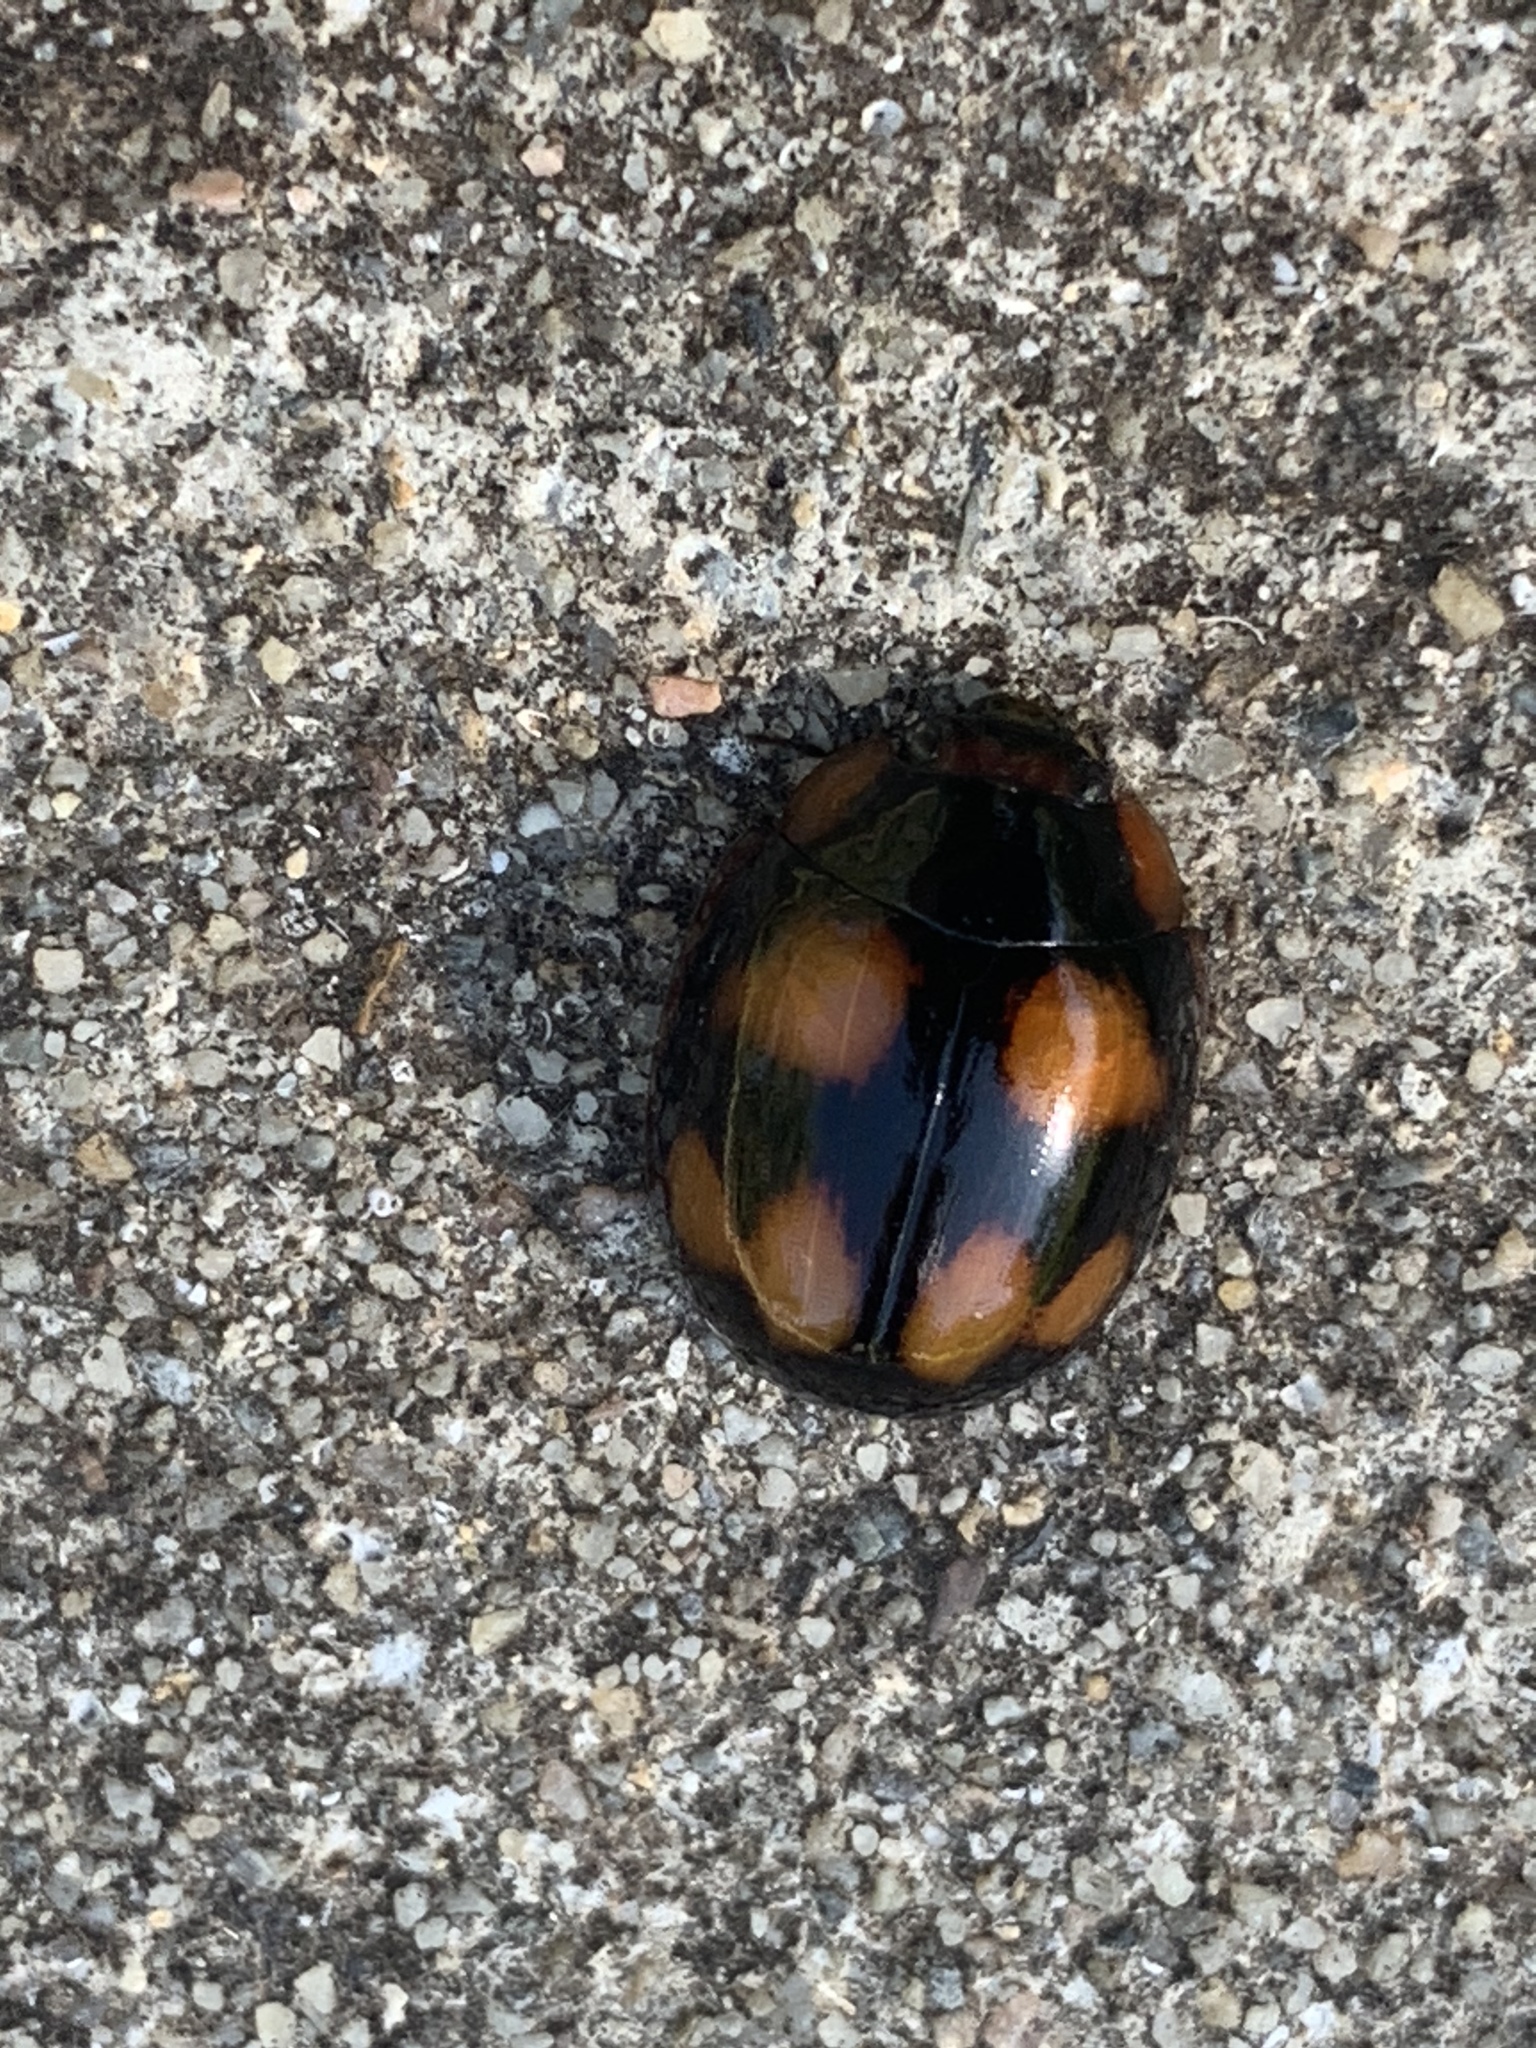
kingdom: Animalia
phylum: Arthropoda
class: Insecta
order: Coleoptera
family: Chrysomelidae
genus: Paropsisterna
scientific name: Paropsisterna beata
